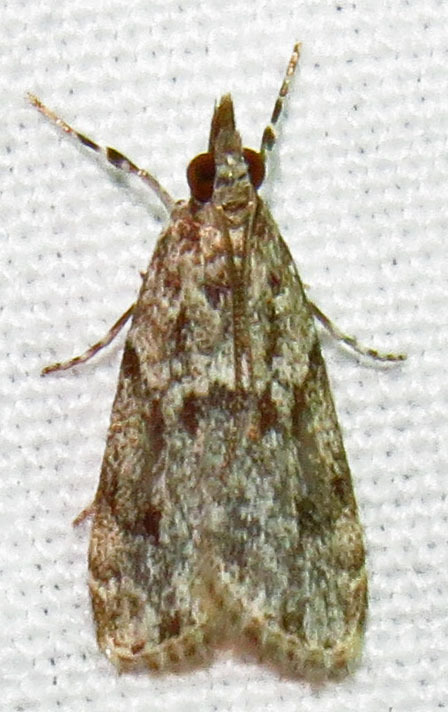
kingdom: Animalia
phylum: Arthropoda
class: Insecta
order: Lepidoptera
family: Crambidae
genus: Eudonia
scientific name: Eudonia heterosalis
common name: Mcdunnough's eudonia
